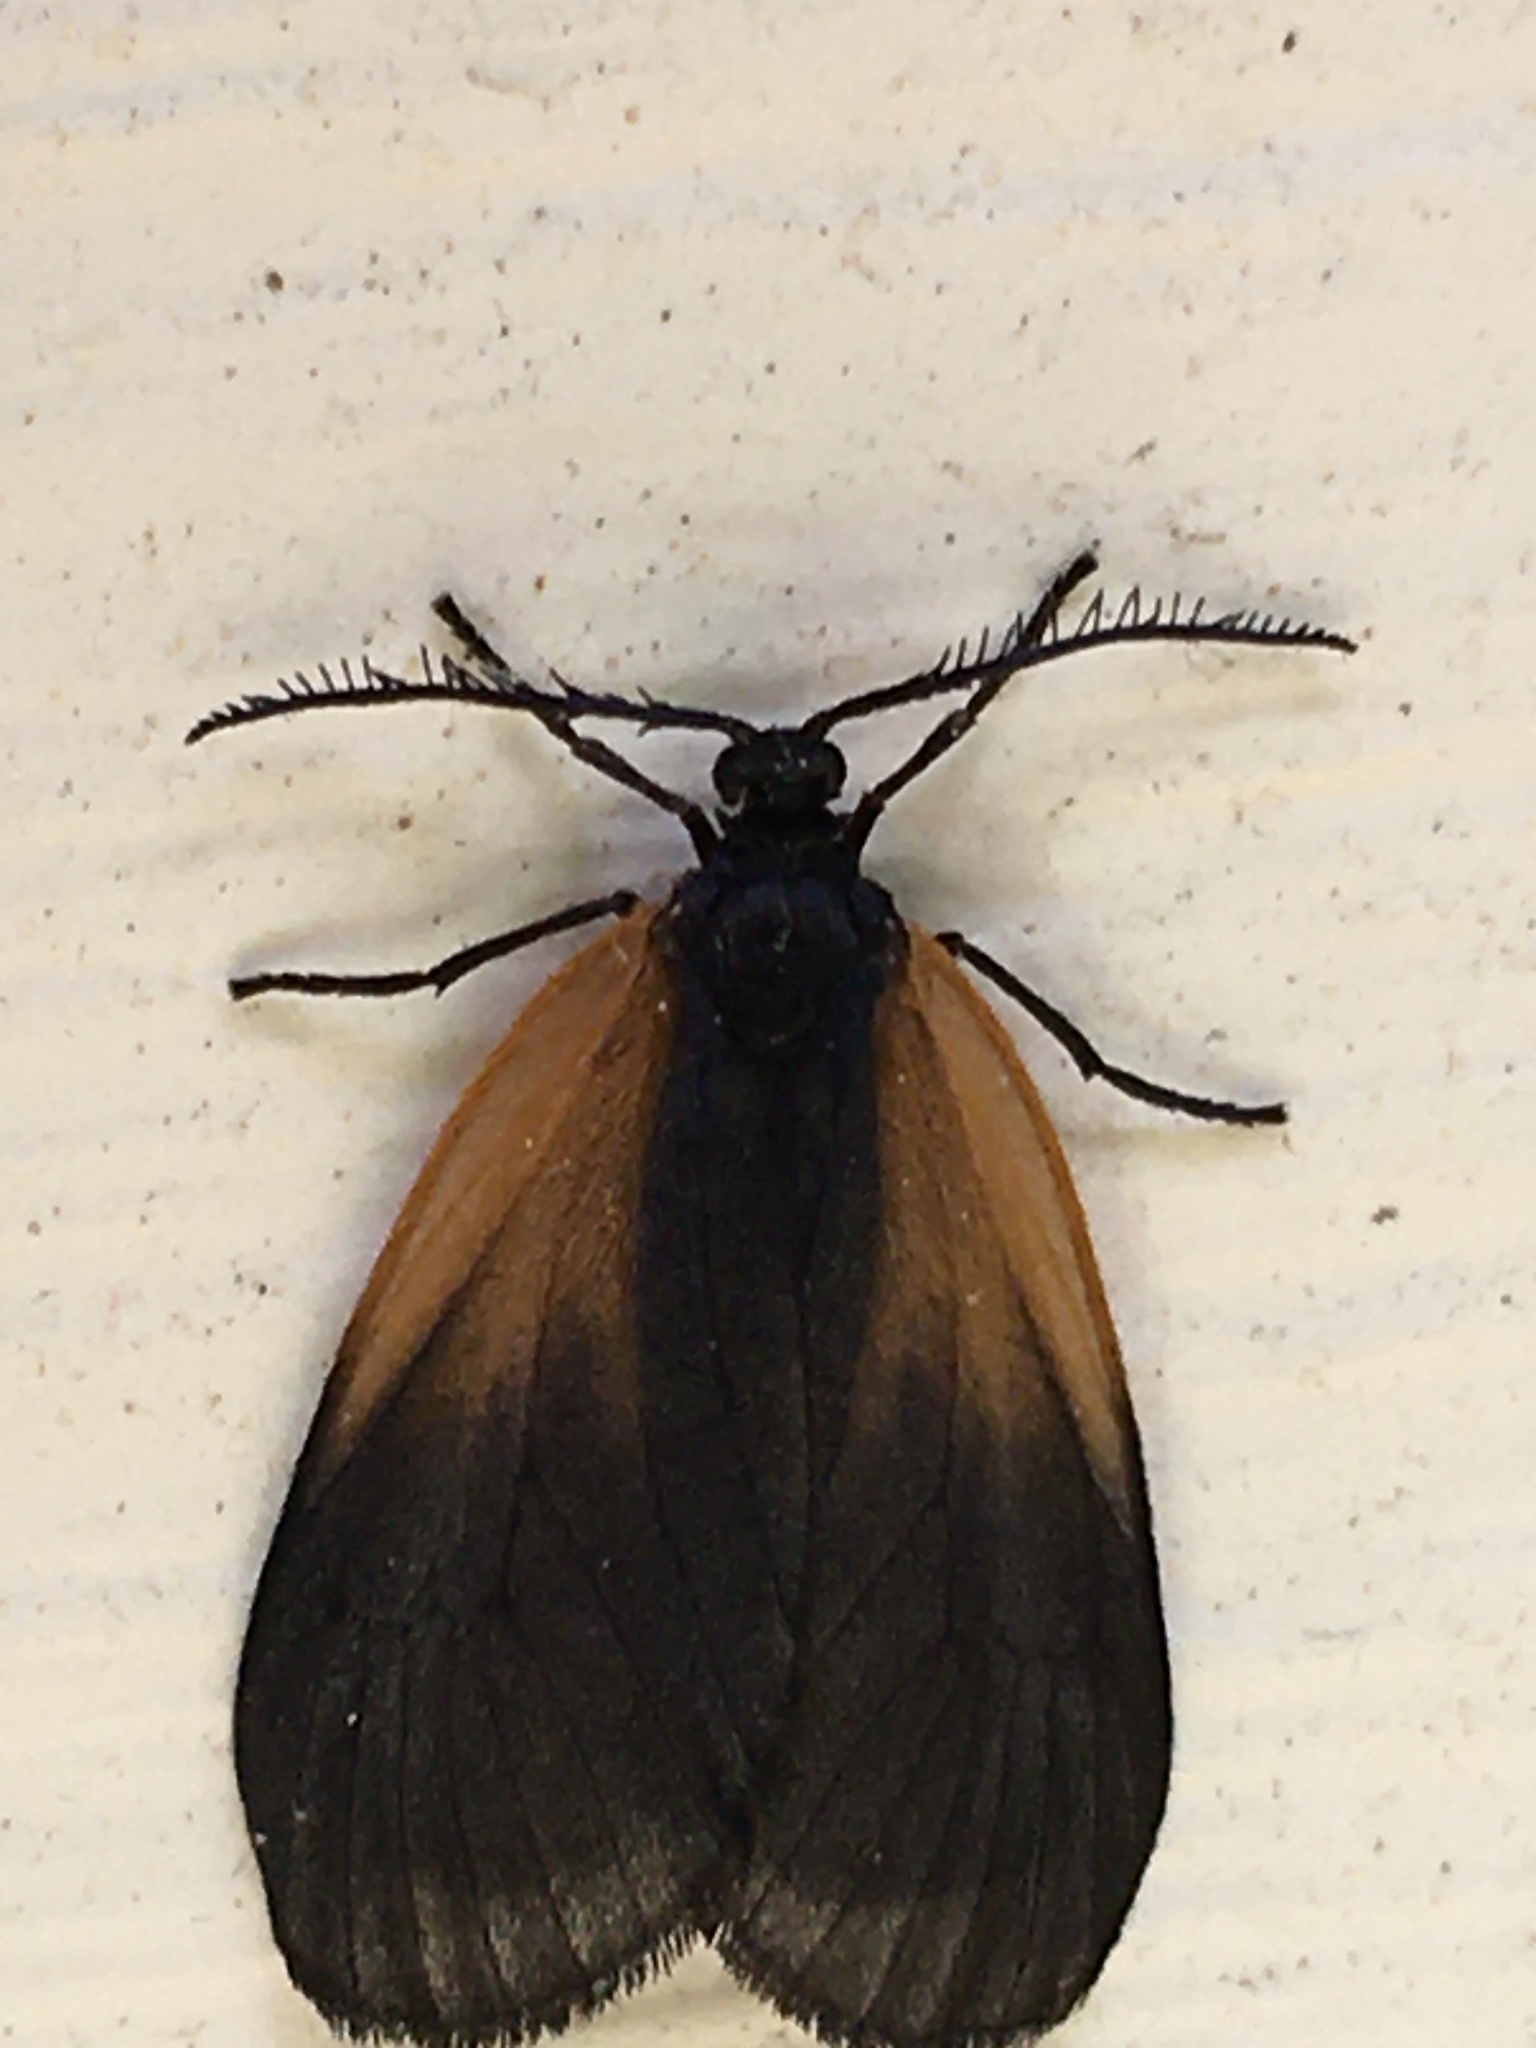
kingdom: Animalia
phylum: Arthropoda
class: Insecta
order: Lepidoptera
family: Zygaenidae
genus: Malthaca
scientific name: Malthaca dimidiata
